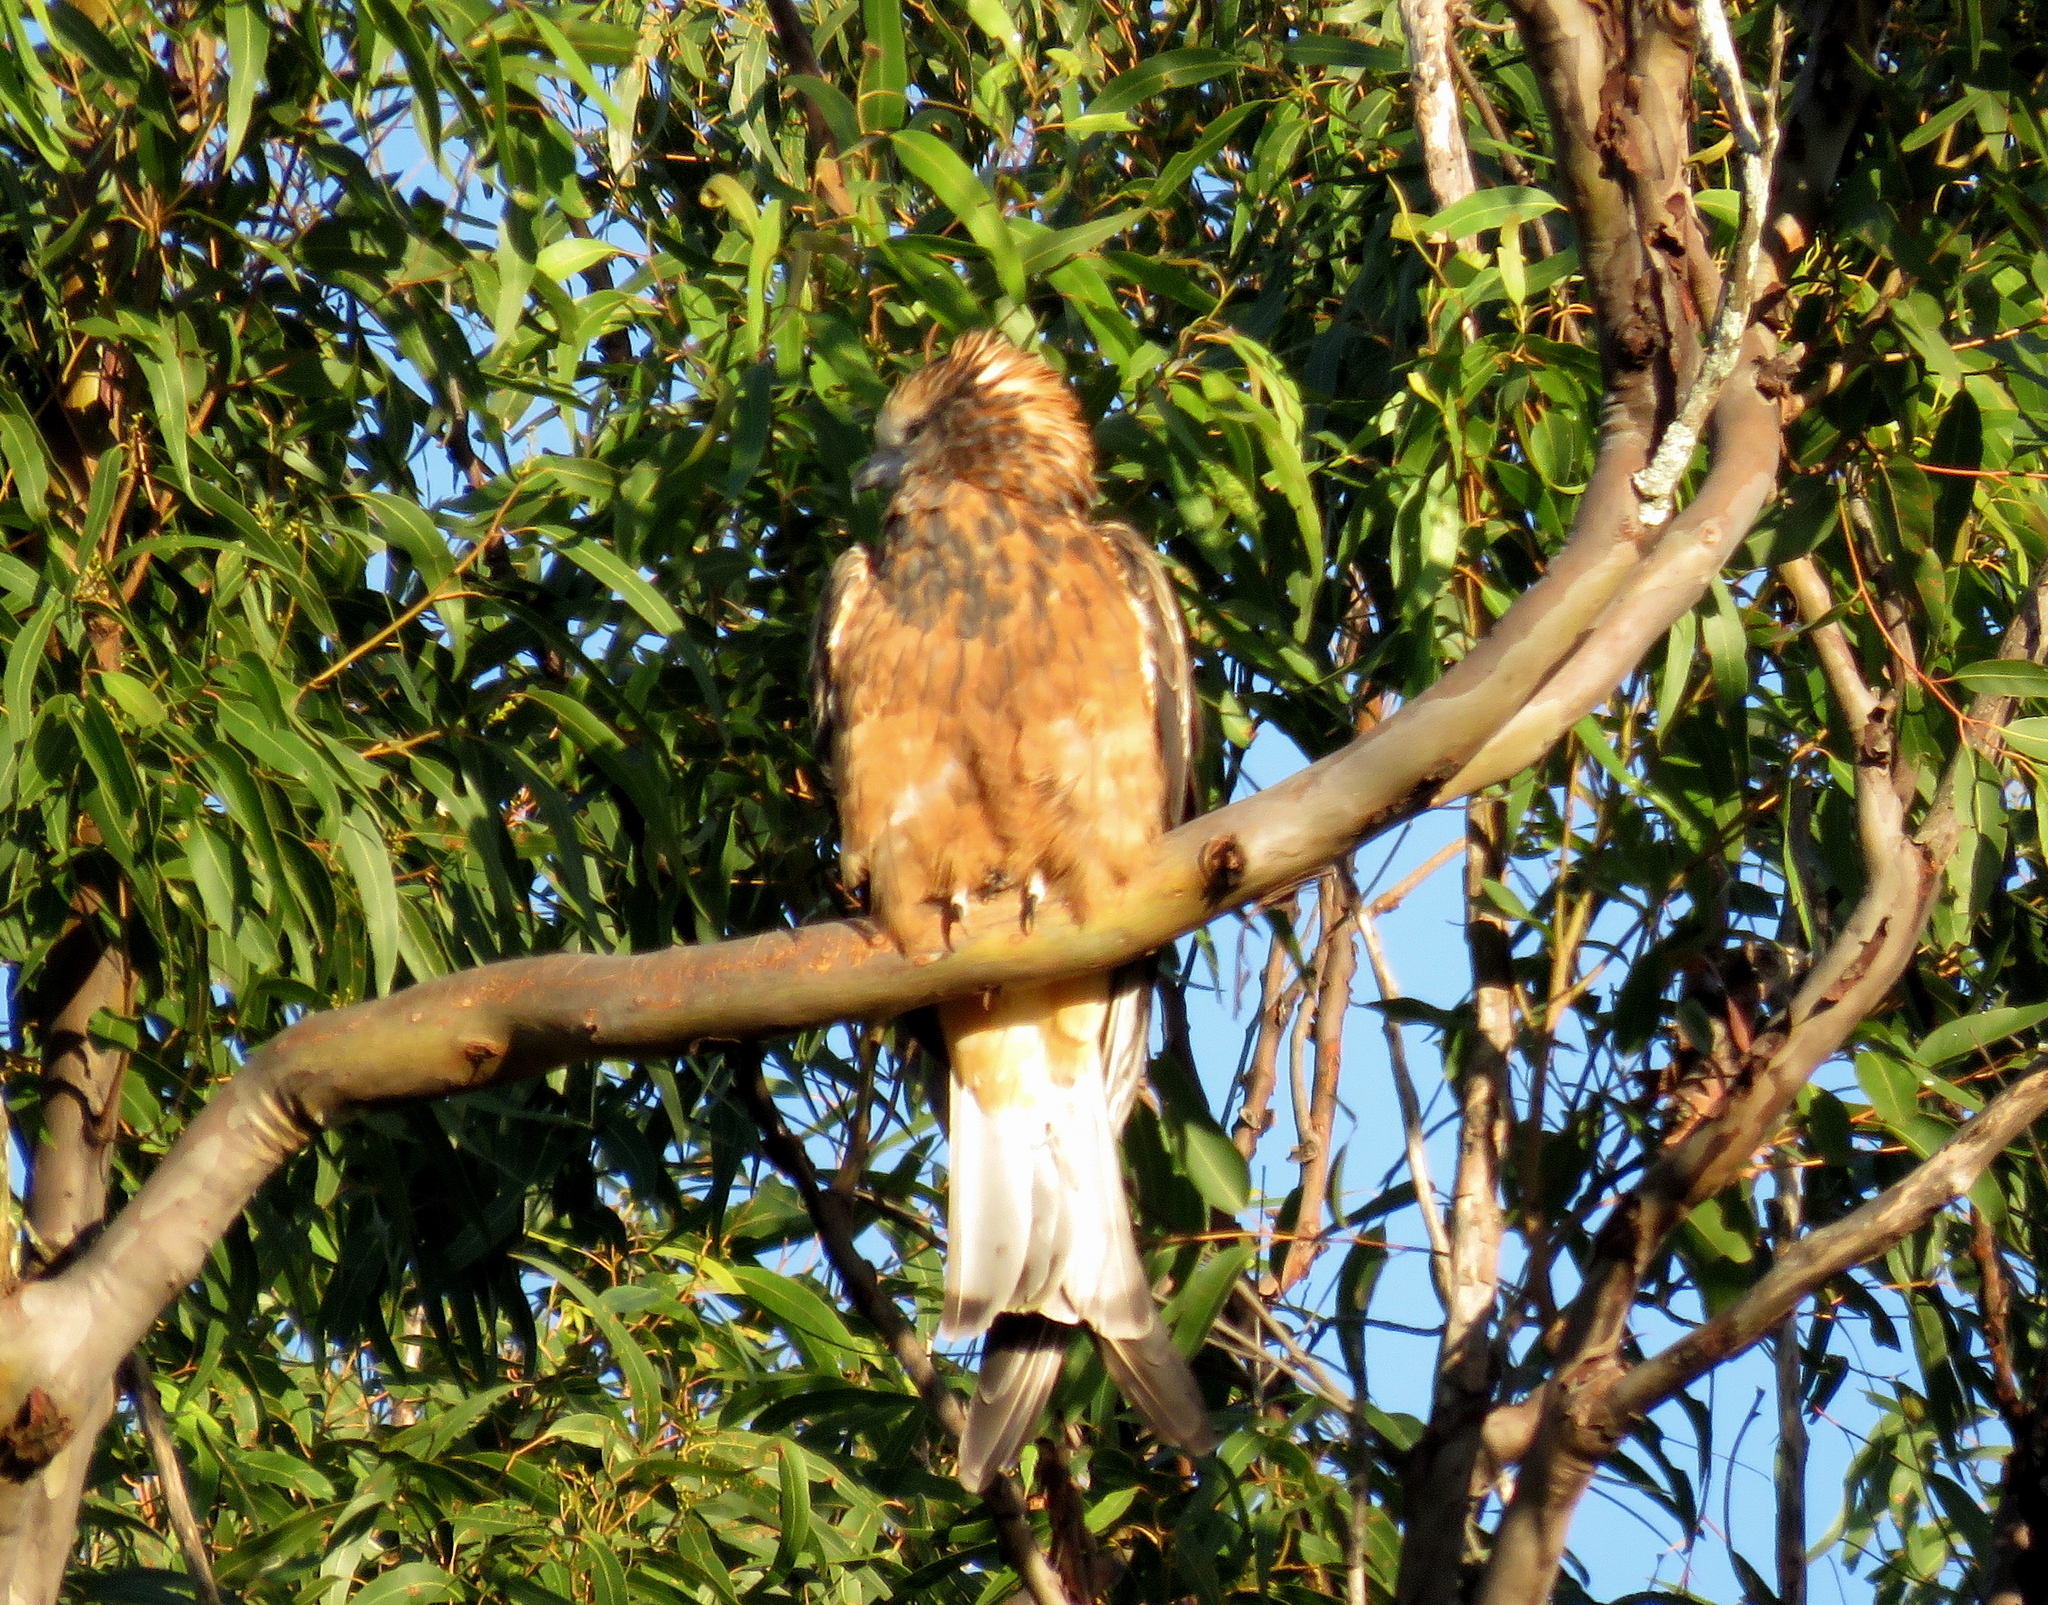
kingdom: Animalia
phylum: Chordata
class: Aves
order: Accipitriformes
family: Accipitridae
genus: Lophoictinia
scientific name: Lophoictinia isura
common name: Square-tailed kite
